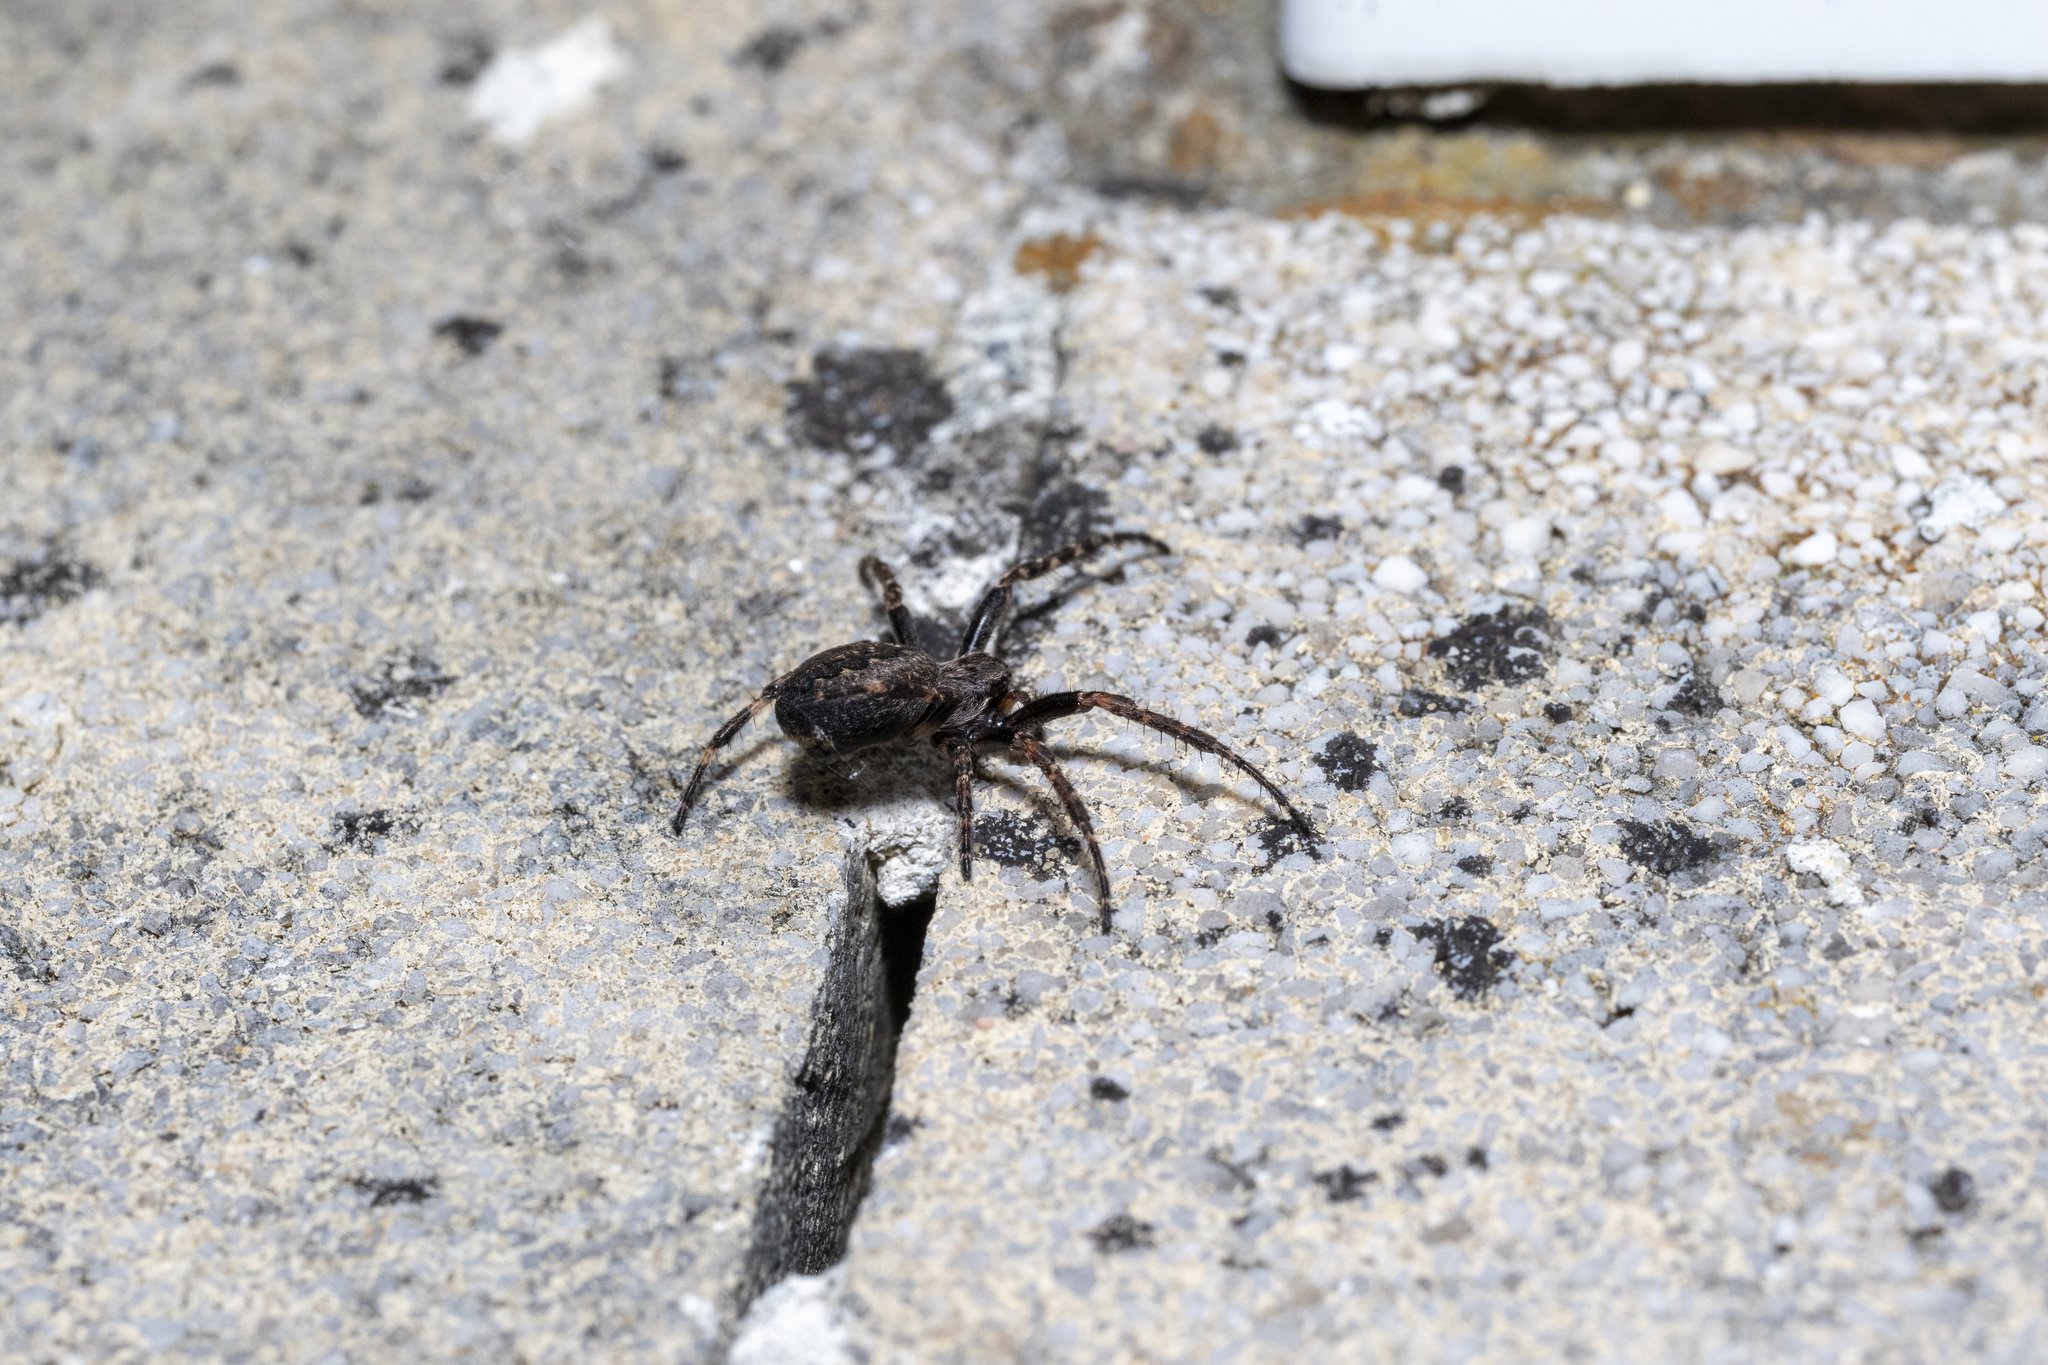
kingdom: Animalia
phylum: Arthropoda
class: Arachnida
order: Araneae
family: Araneidae
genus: Nuctenea
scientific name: Nuctenea umbratica
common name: Toad spider
